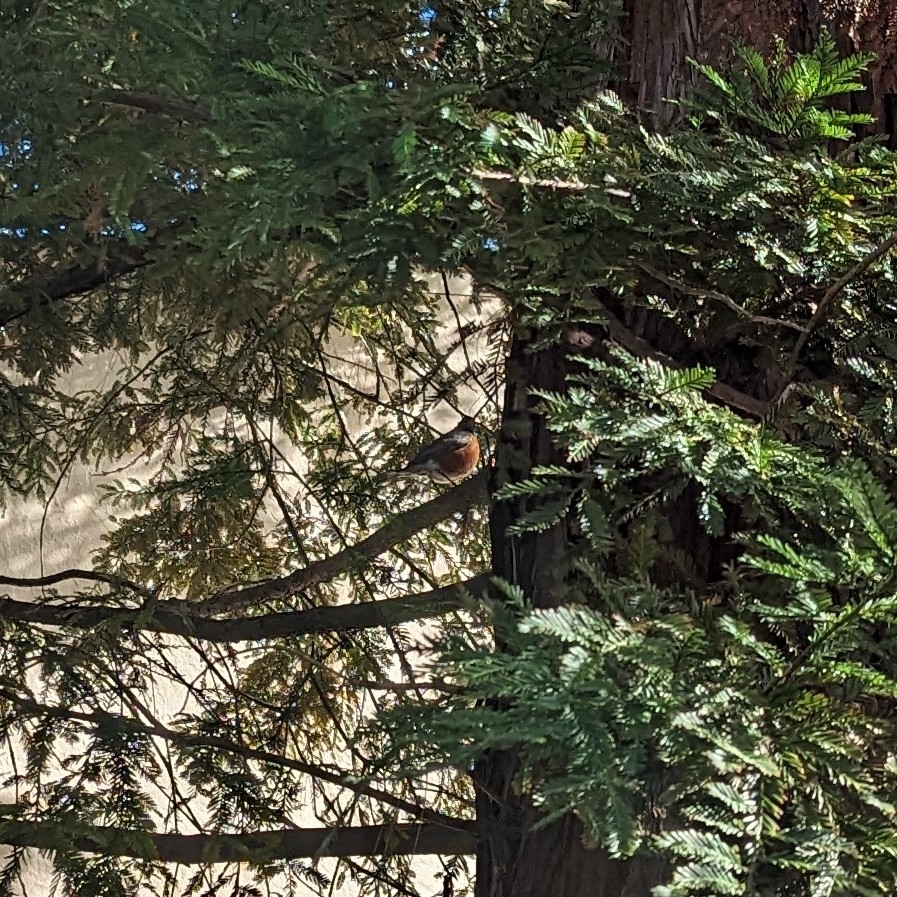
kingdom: Animalia
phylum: Chordata
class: Aves
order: Passeriformes
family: Turdidae
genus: Turdus
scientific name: Turdus migratorius
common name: American robin
